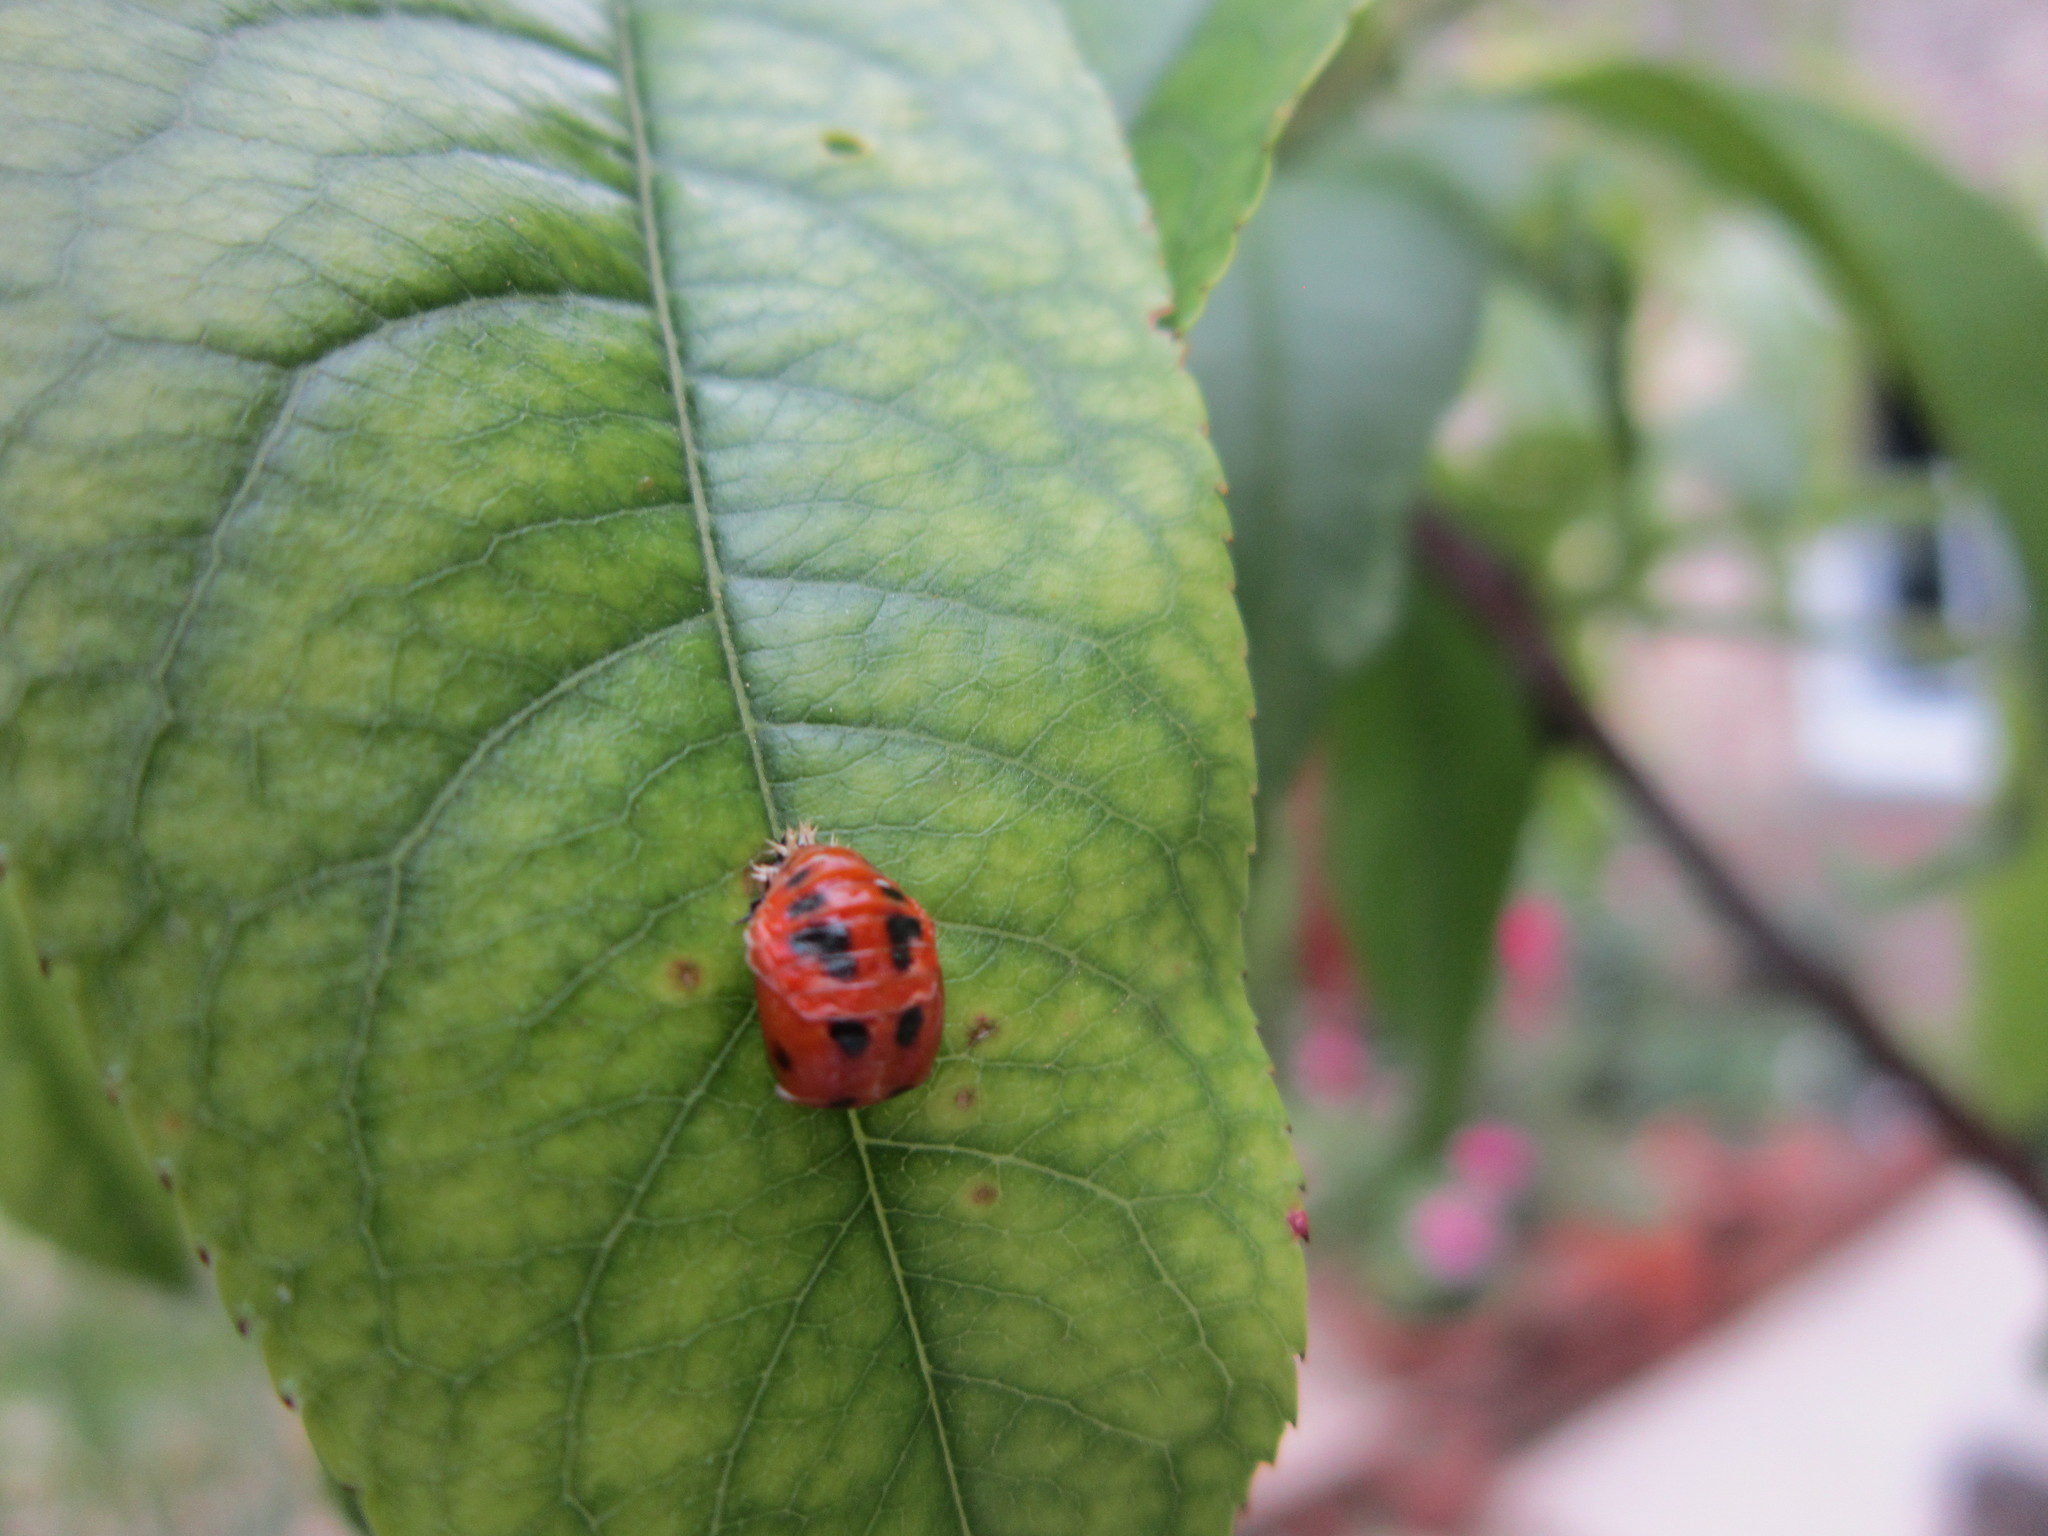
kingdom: Animalia
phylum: Arthropoda
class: Insecta
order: Coleoptera
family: Coccinellidae
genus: Harmonia
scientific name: Harmonia axyridis
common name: Harlequin ladybird
